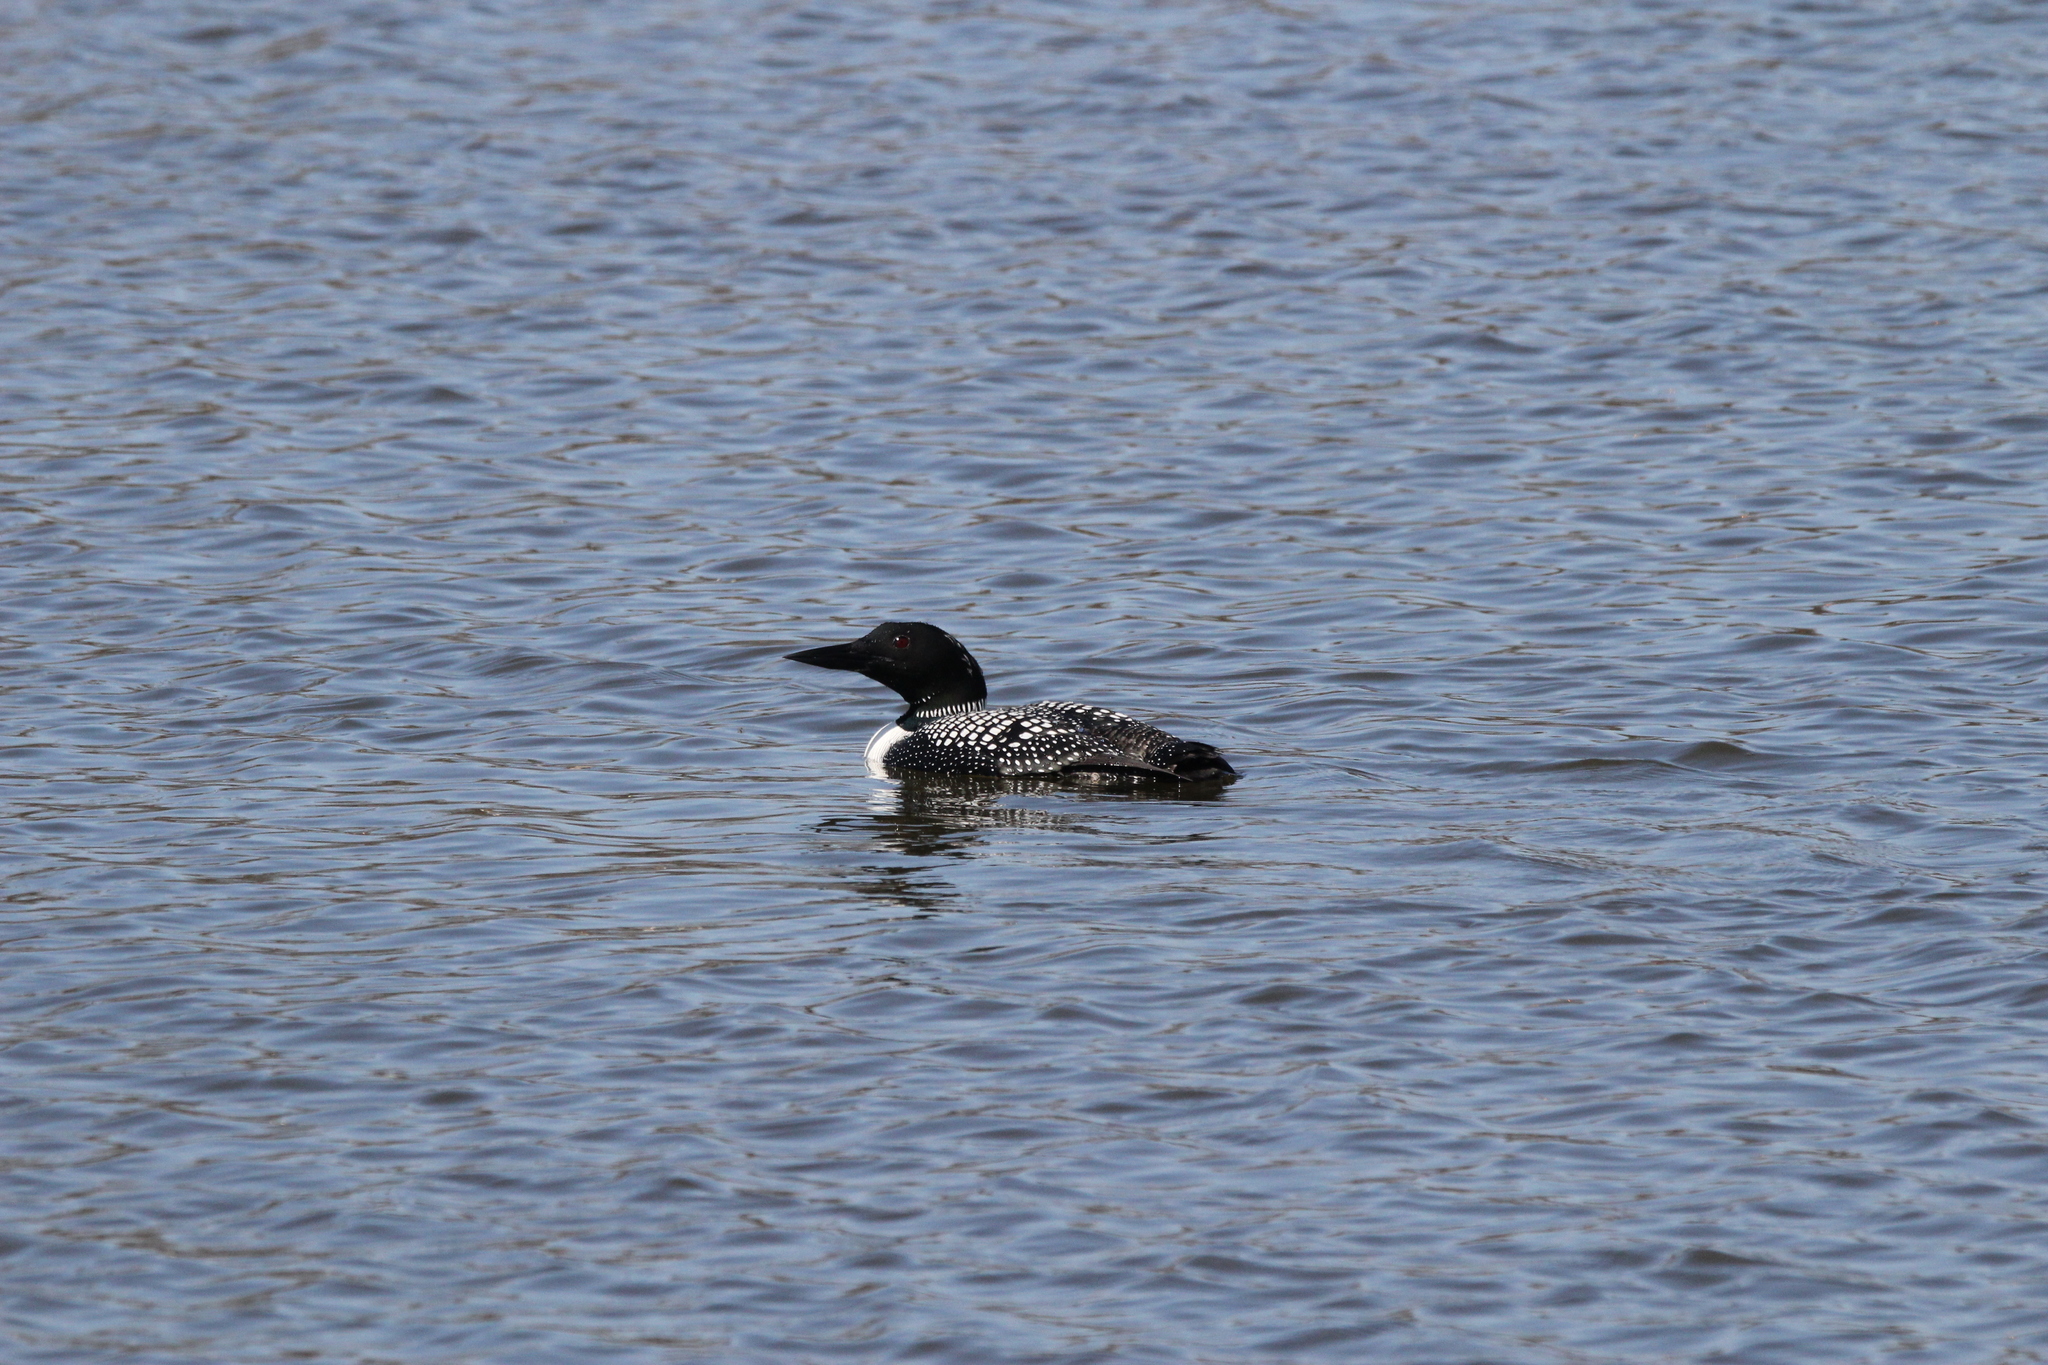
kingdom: Animalia
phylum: Chordata
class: Aves
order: Gaviiformes
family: Gaviidae
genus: Gavia
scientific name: Gavia immer
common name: Common loon
